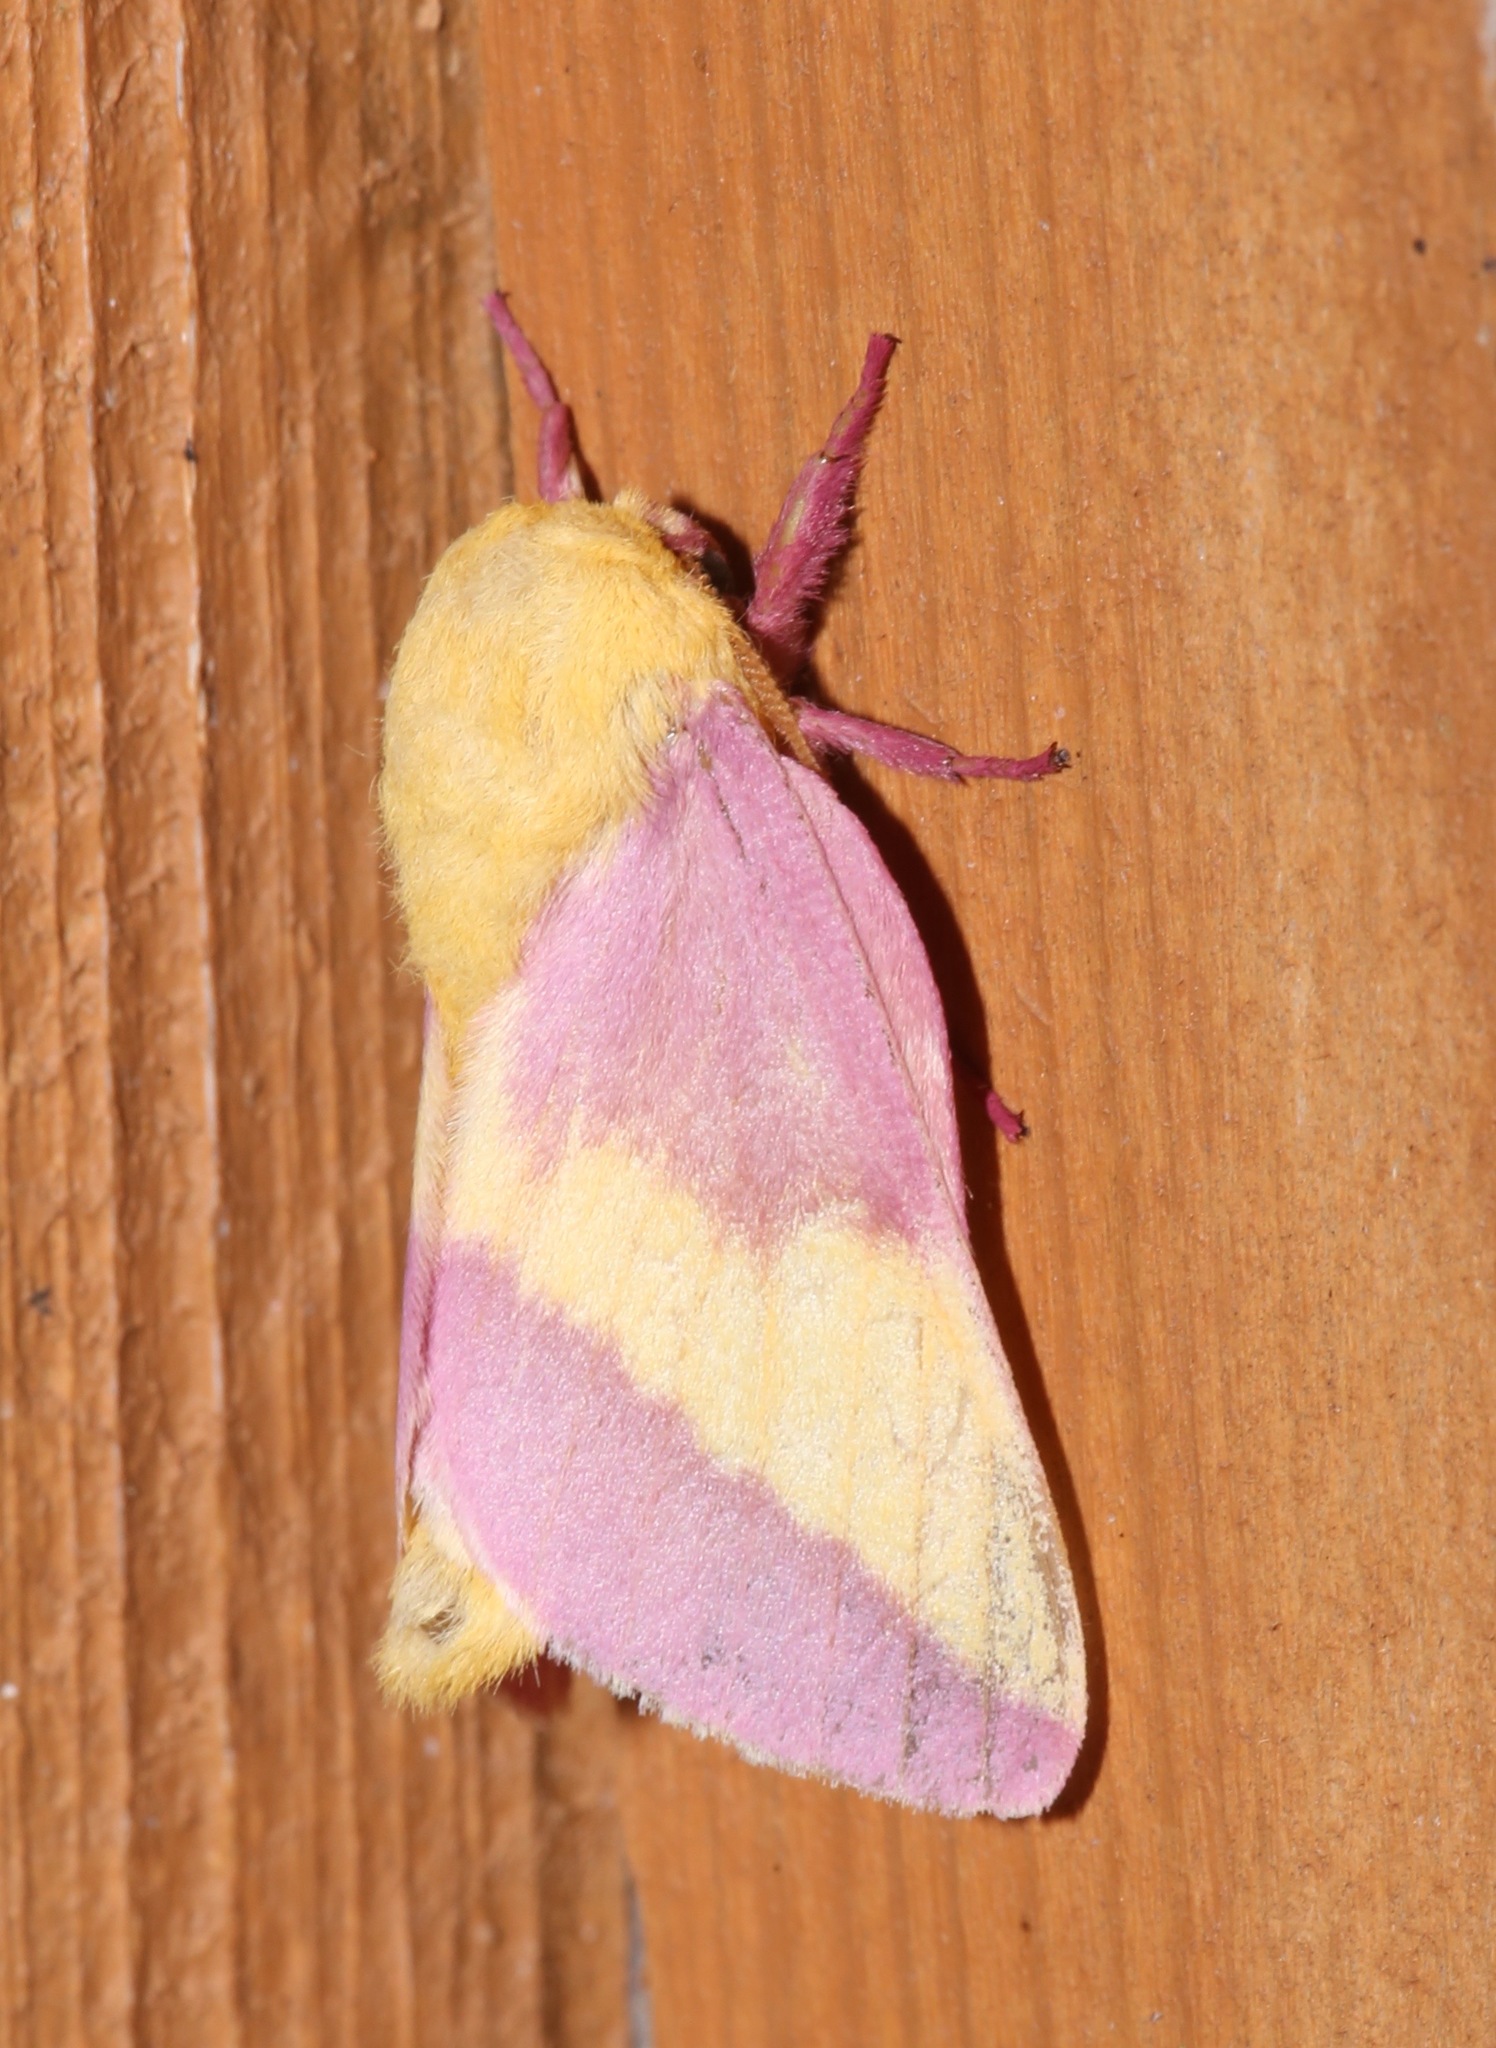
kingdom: Animalia
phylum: Arthropoda
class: Insecta
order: Lepidoptera
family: Saturniidae
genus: Dryocampa
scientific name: Dryocampa rubicunda
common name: Rosy maple moth
